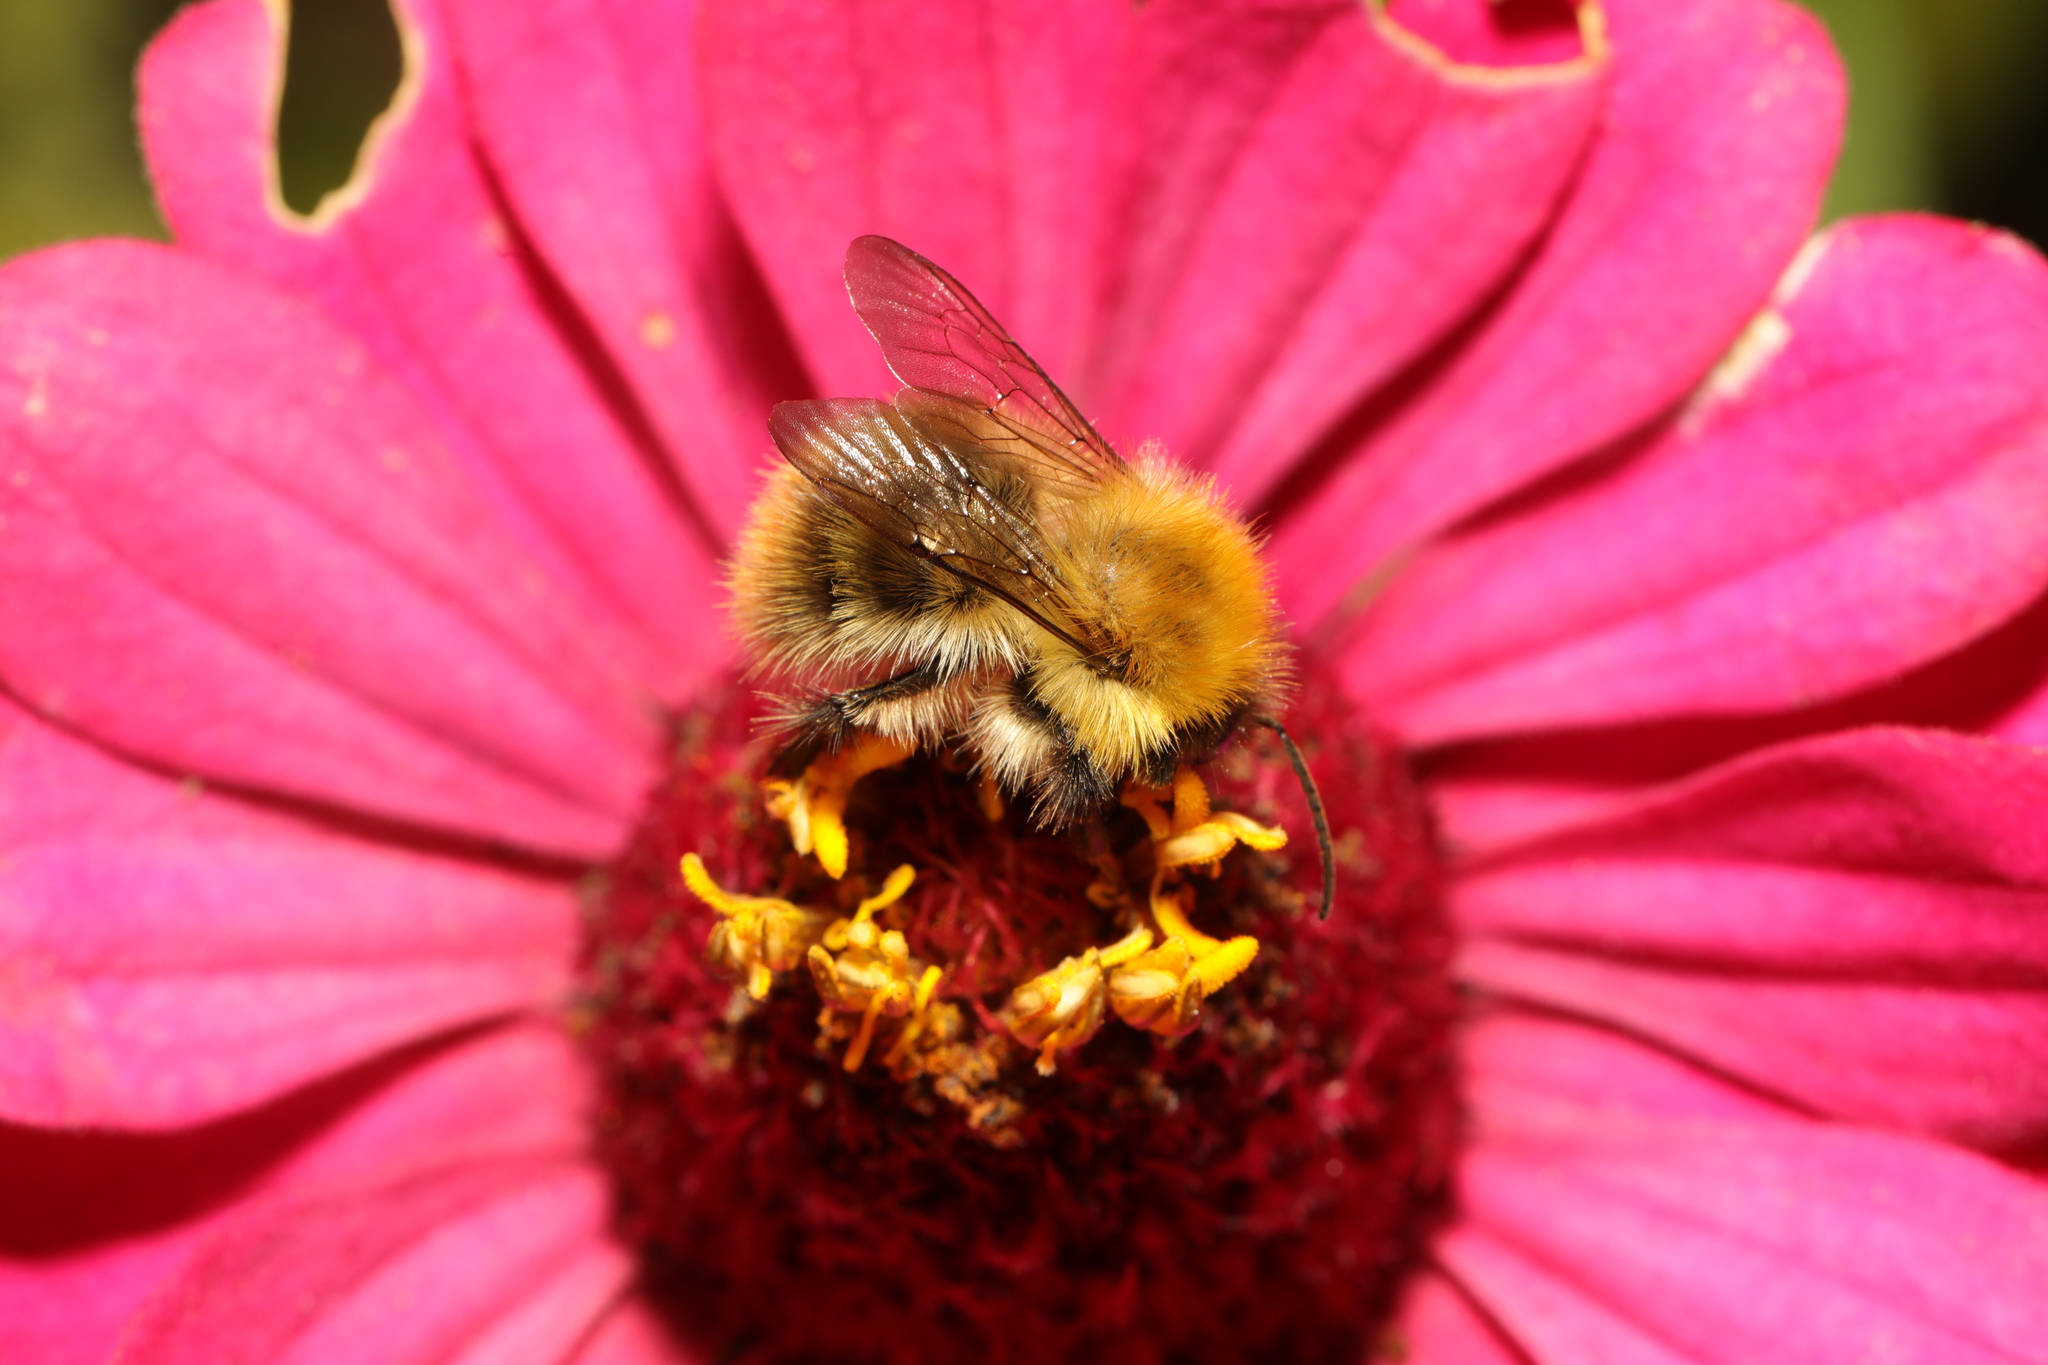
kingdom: Animalia
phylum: Arthropoda
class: Insecta
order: Hymenoptera
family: Apidae
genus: Bombus
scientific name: Bombus pascuorum
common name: Common carder bee
